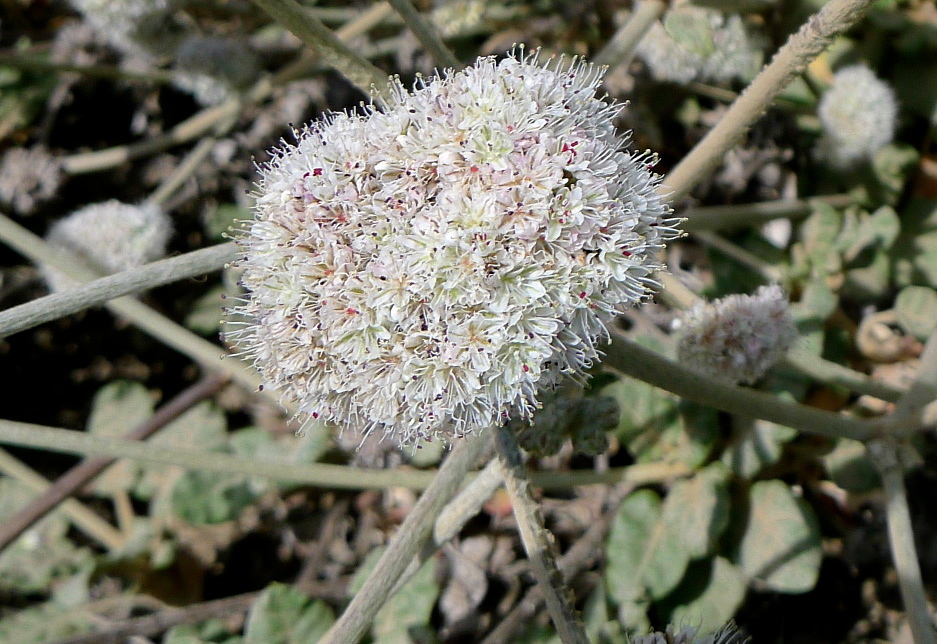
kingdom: Plantae
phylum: Tracheophyta
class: Magnoliopsida
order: Caryophyllales
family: Polygonaceae
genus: Eriogonum
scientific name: Eriogonum latifolium
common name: Seaside wild buckwheat
